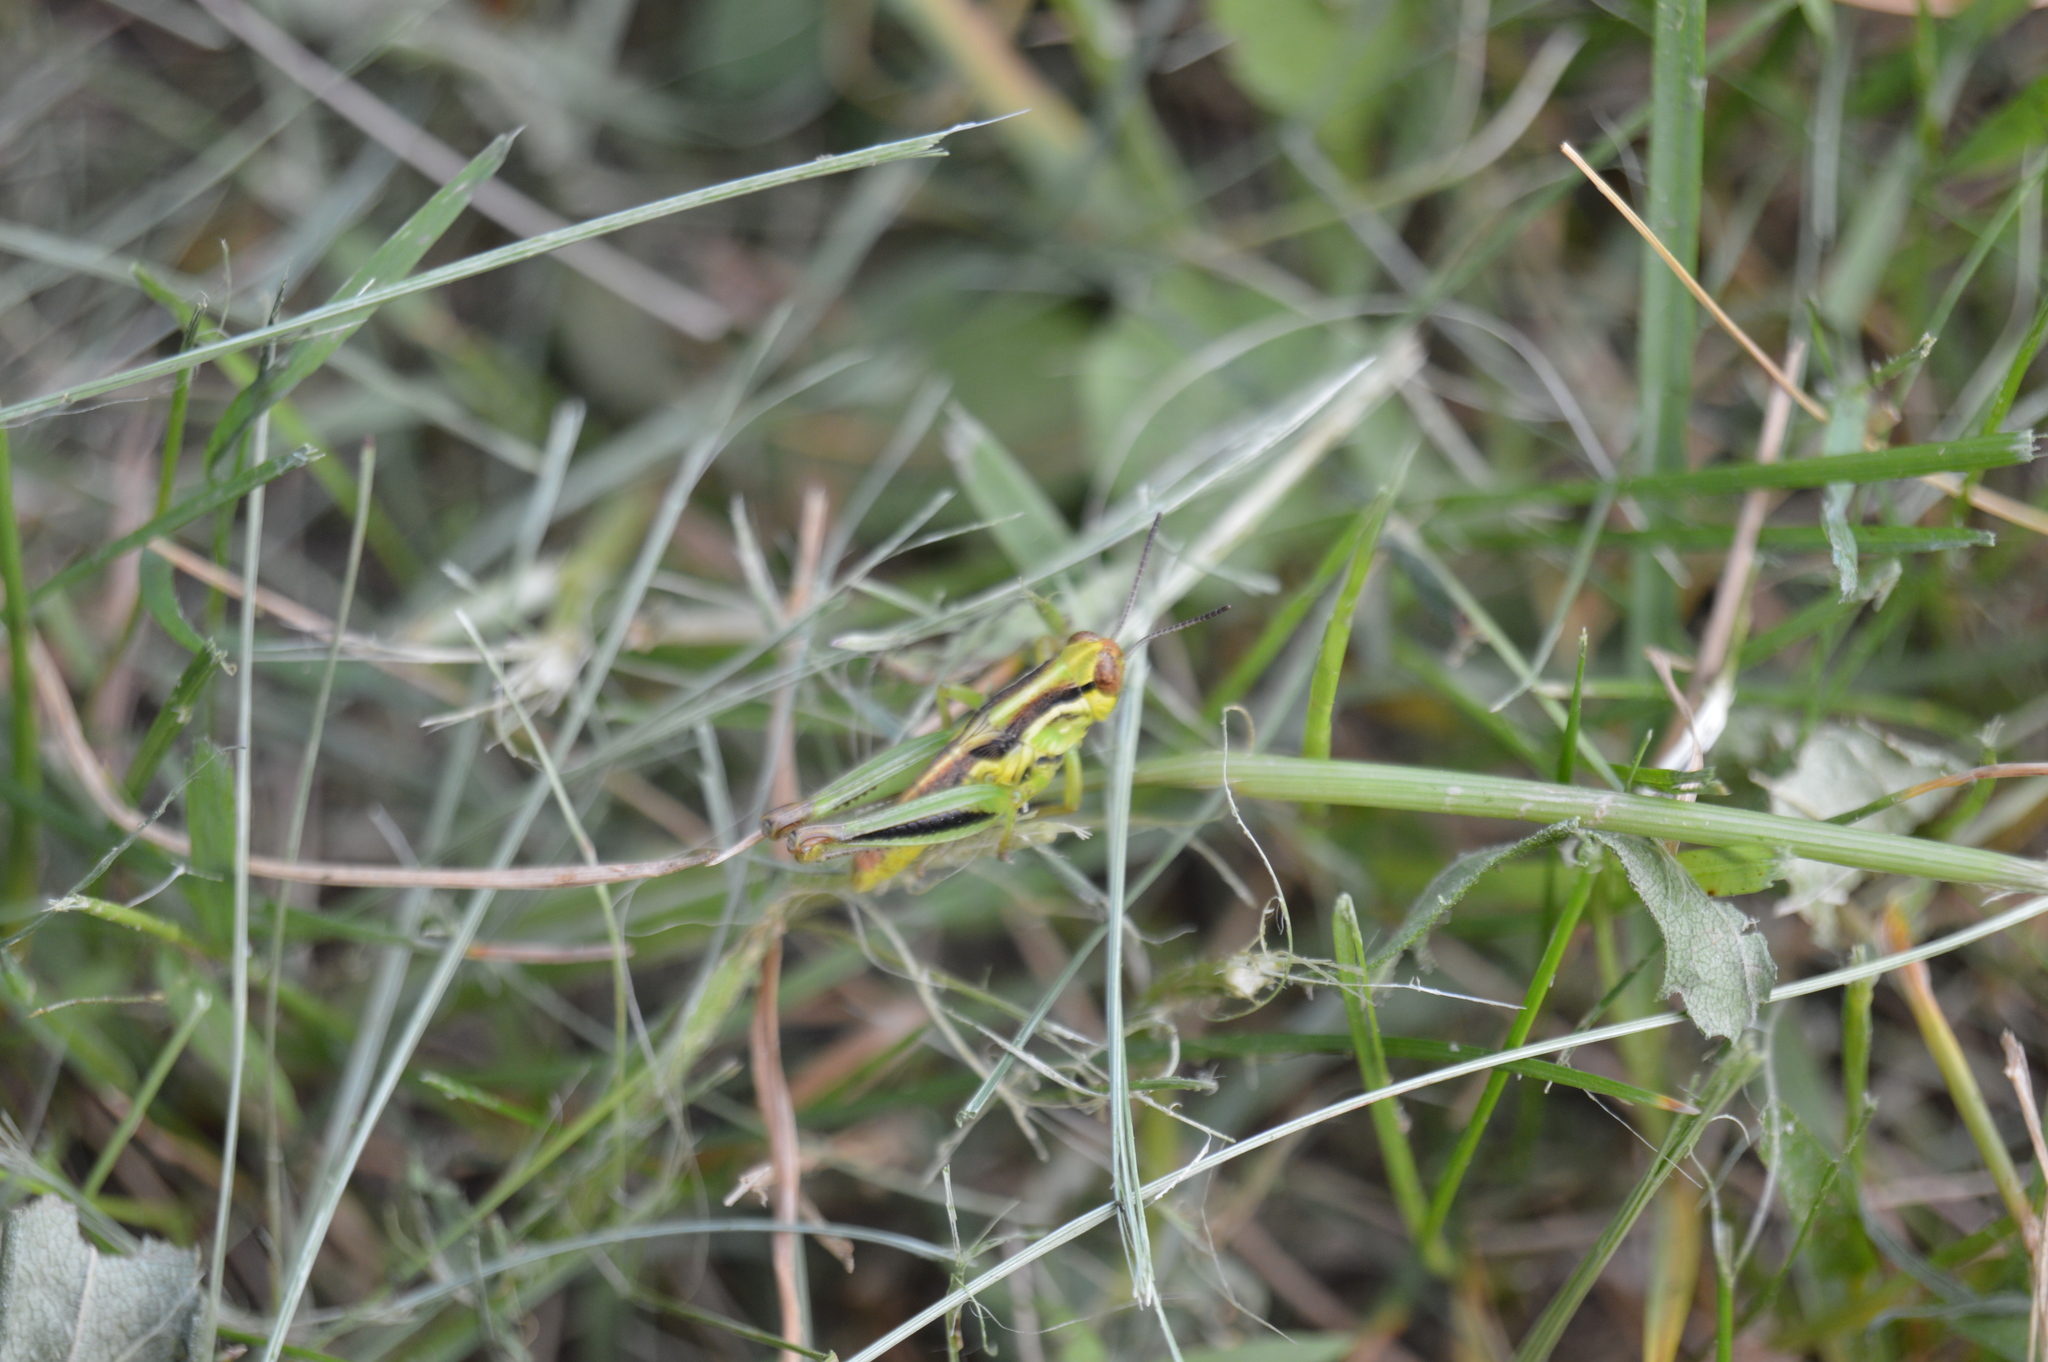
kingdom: Animalia
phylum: Arthropoda
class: Insecta
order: Orthoptera
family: Acrididae
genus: Melanoplus
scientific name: Melanoplus
